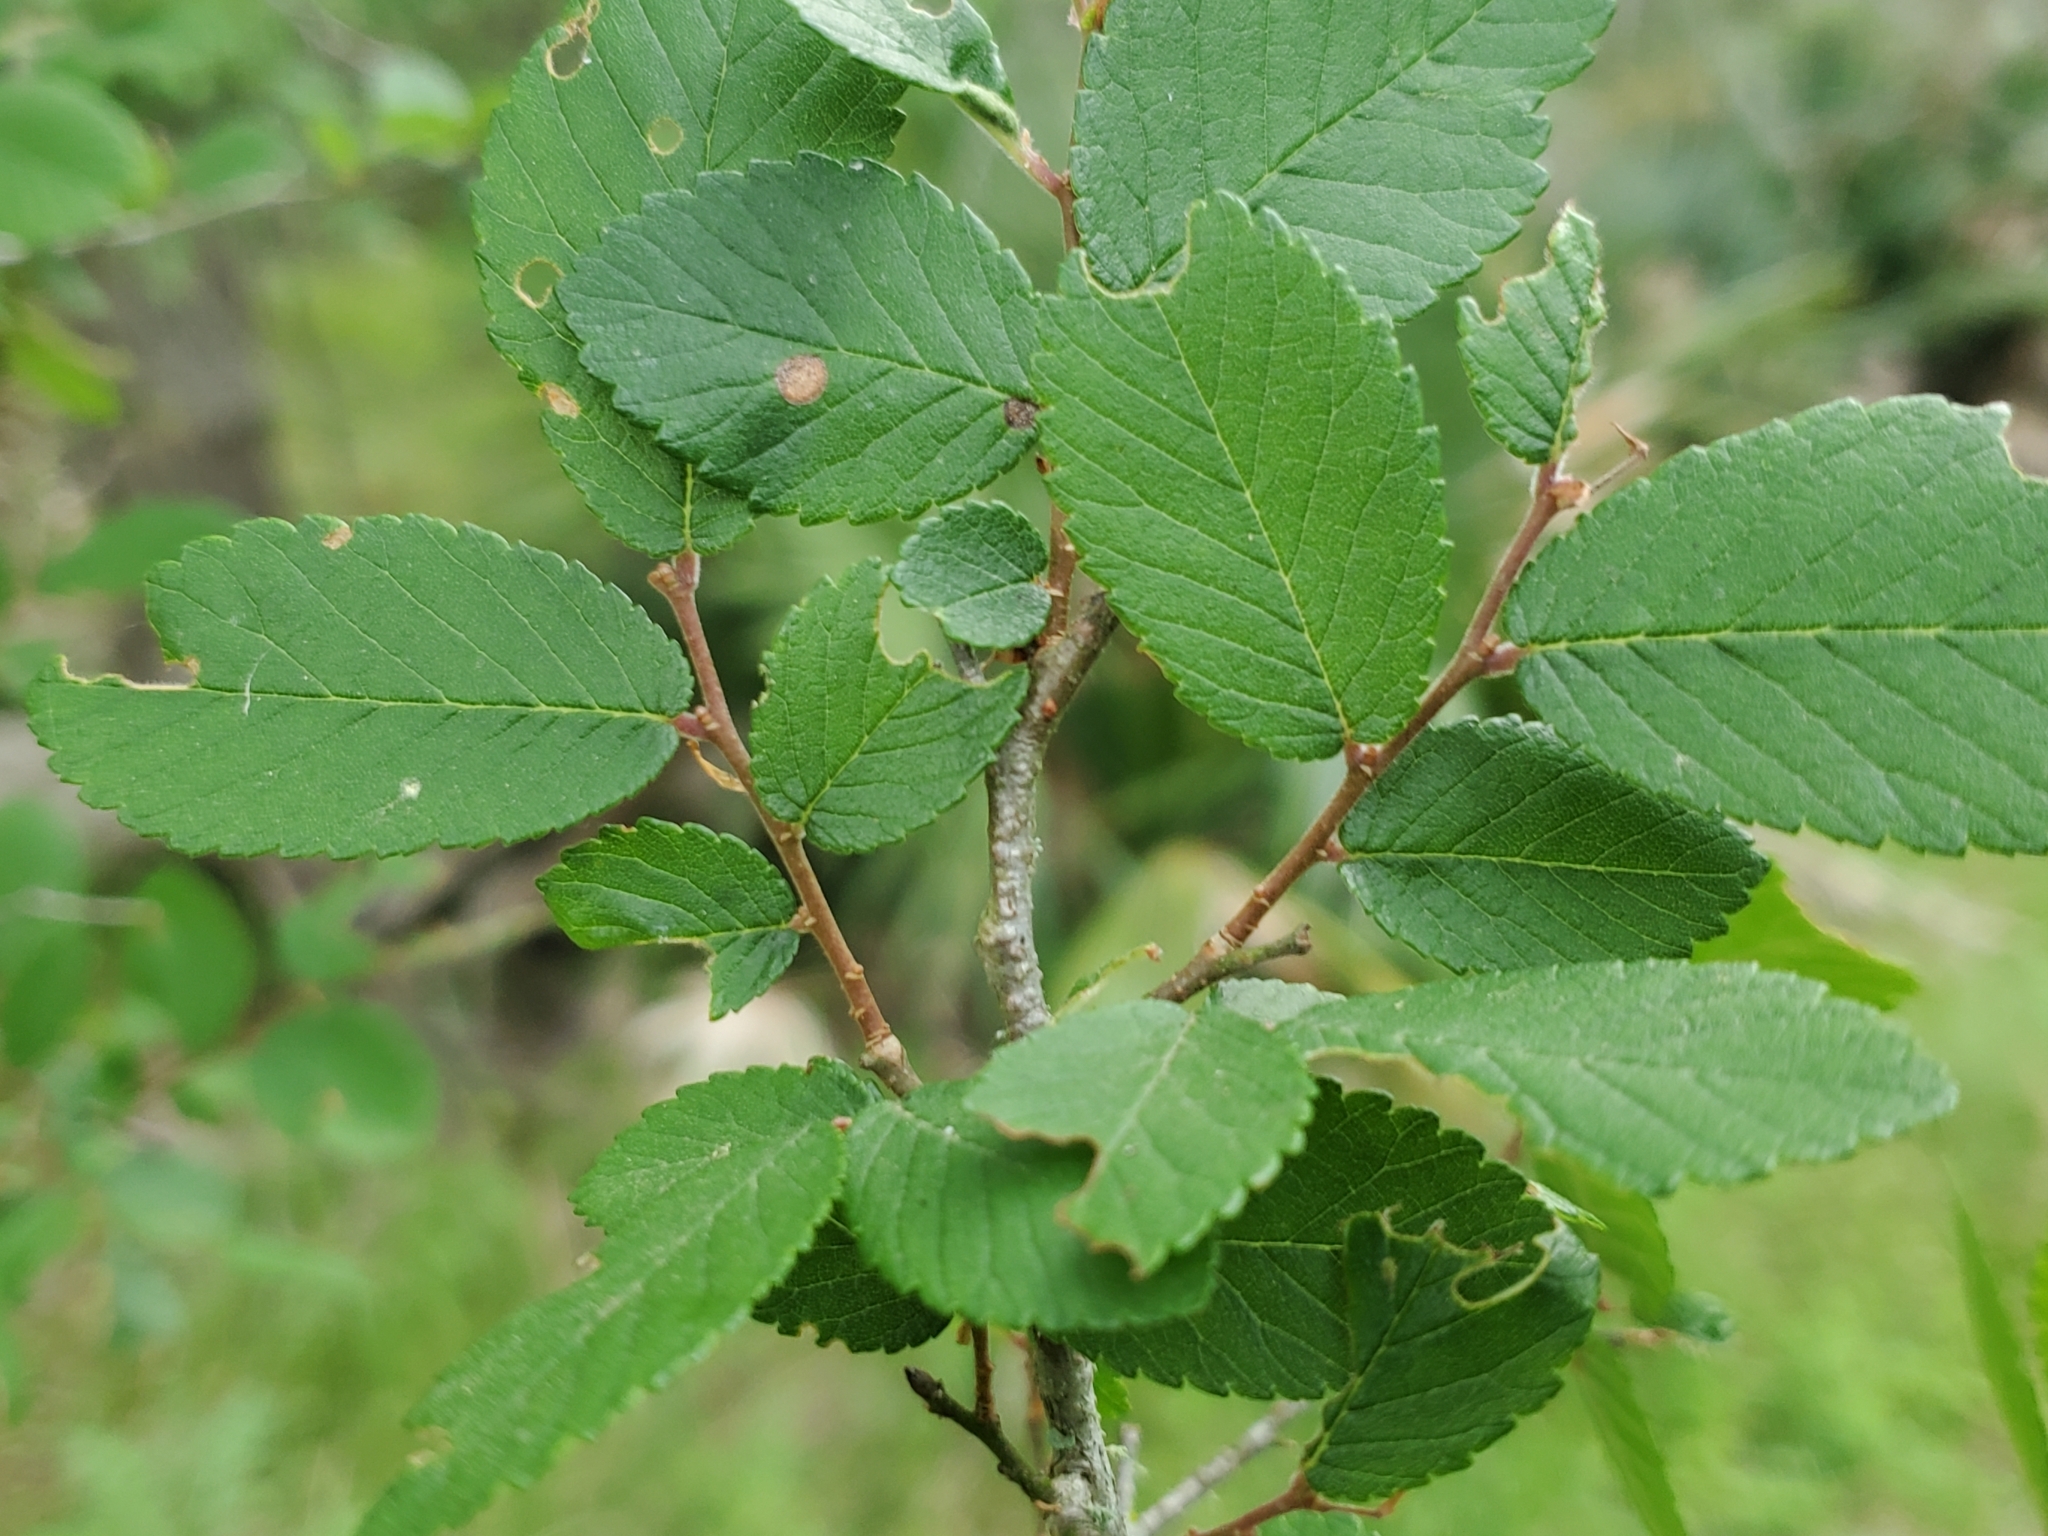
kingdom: Plantae
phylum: Tracheophyta
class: Magnoliopsida
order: Rosales
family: Ulmaceae
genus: Ulmus
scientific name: Ulmus crassifolia
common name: Basket elm
